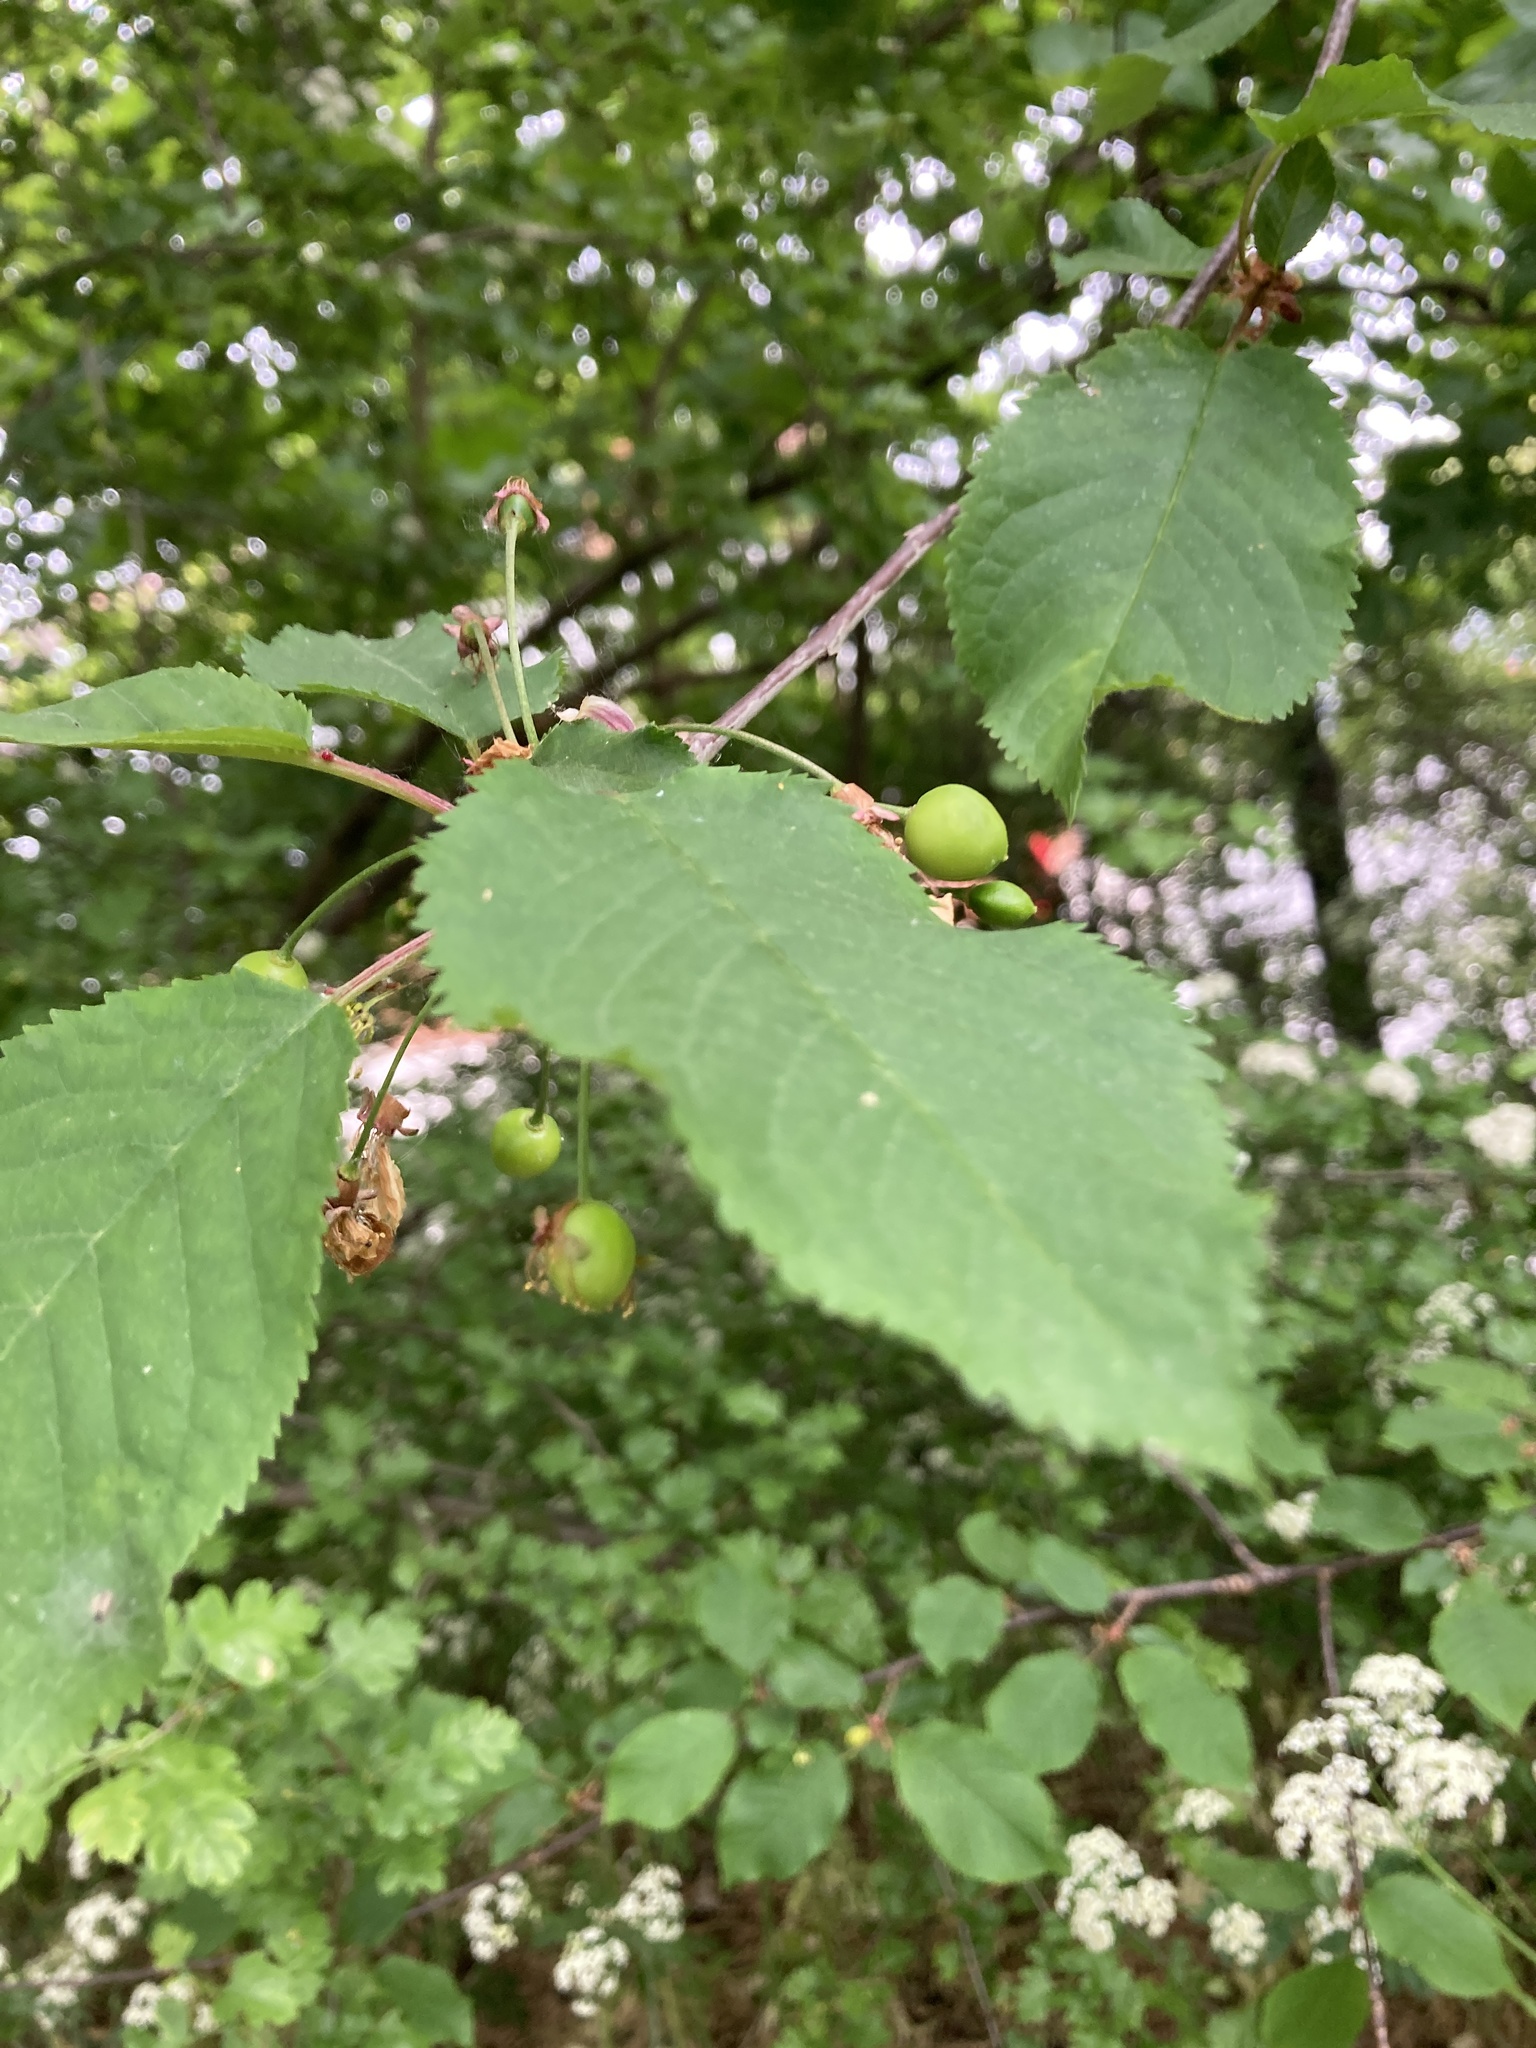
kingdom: Plantae
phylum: Tracheophyta
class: Magnoliopsida
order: Rosales
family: Rosaceae
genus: Prunus
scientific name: Prunus avium
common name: Sweet cherry
